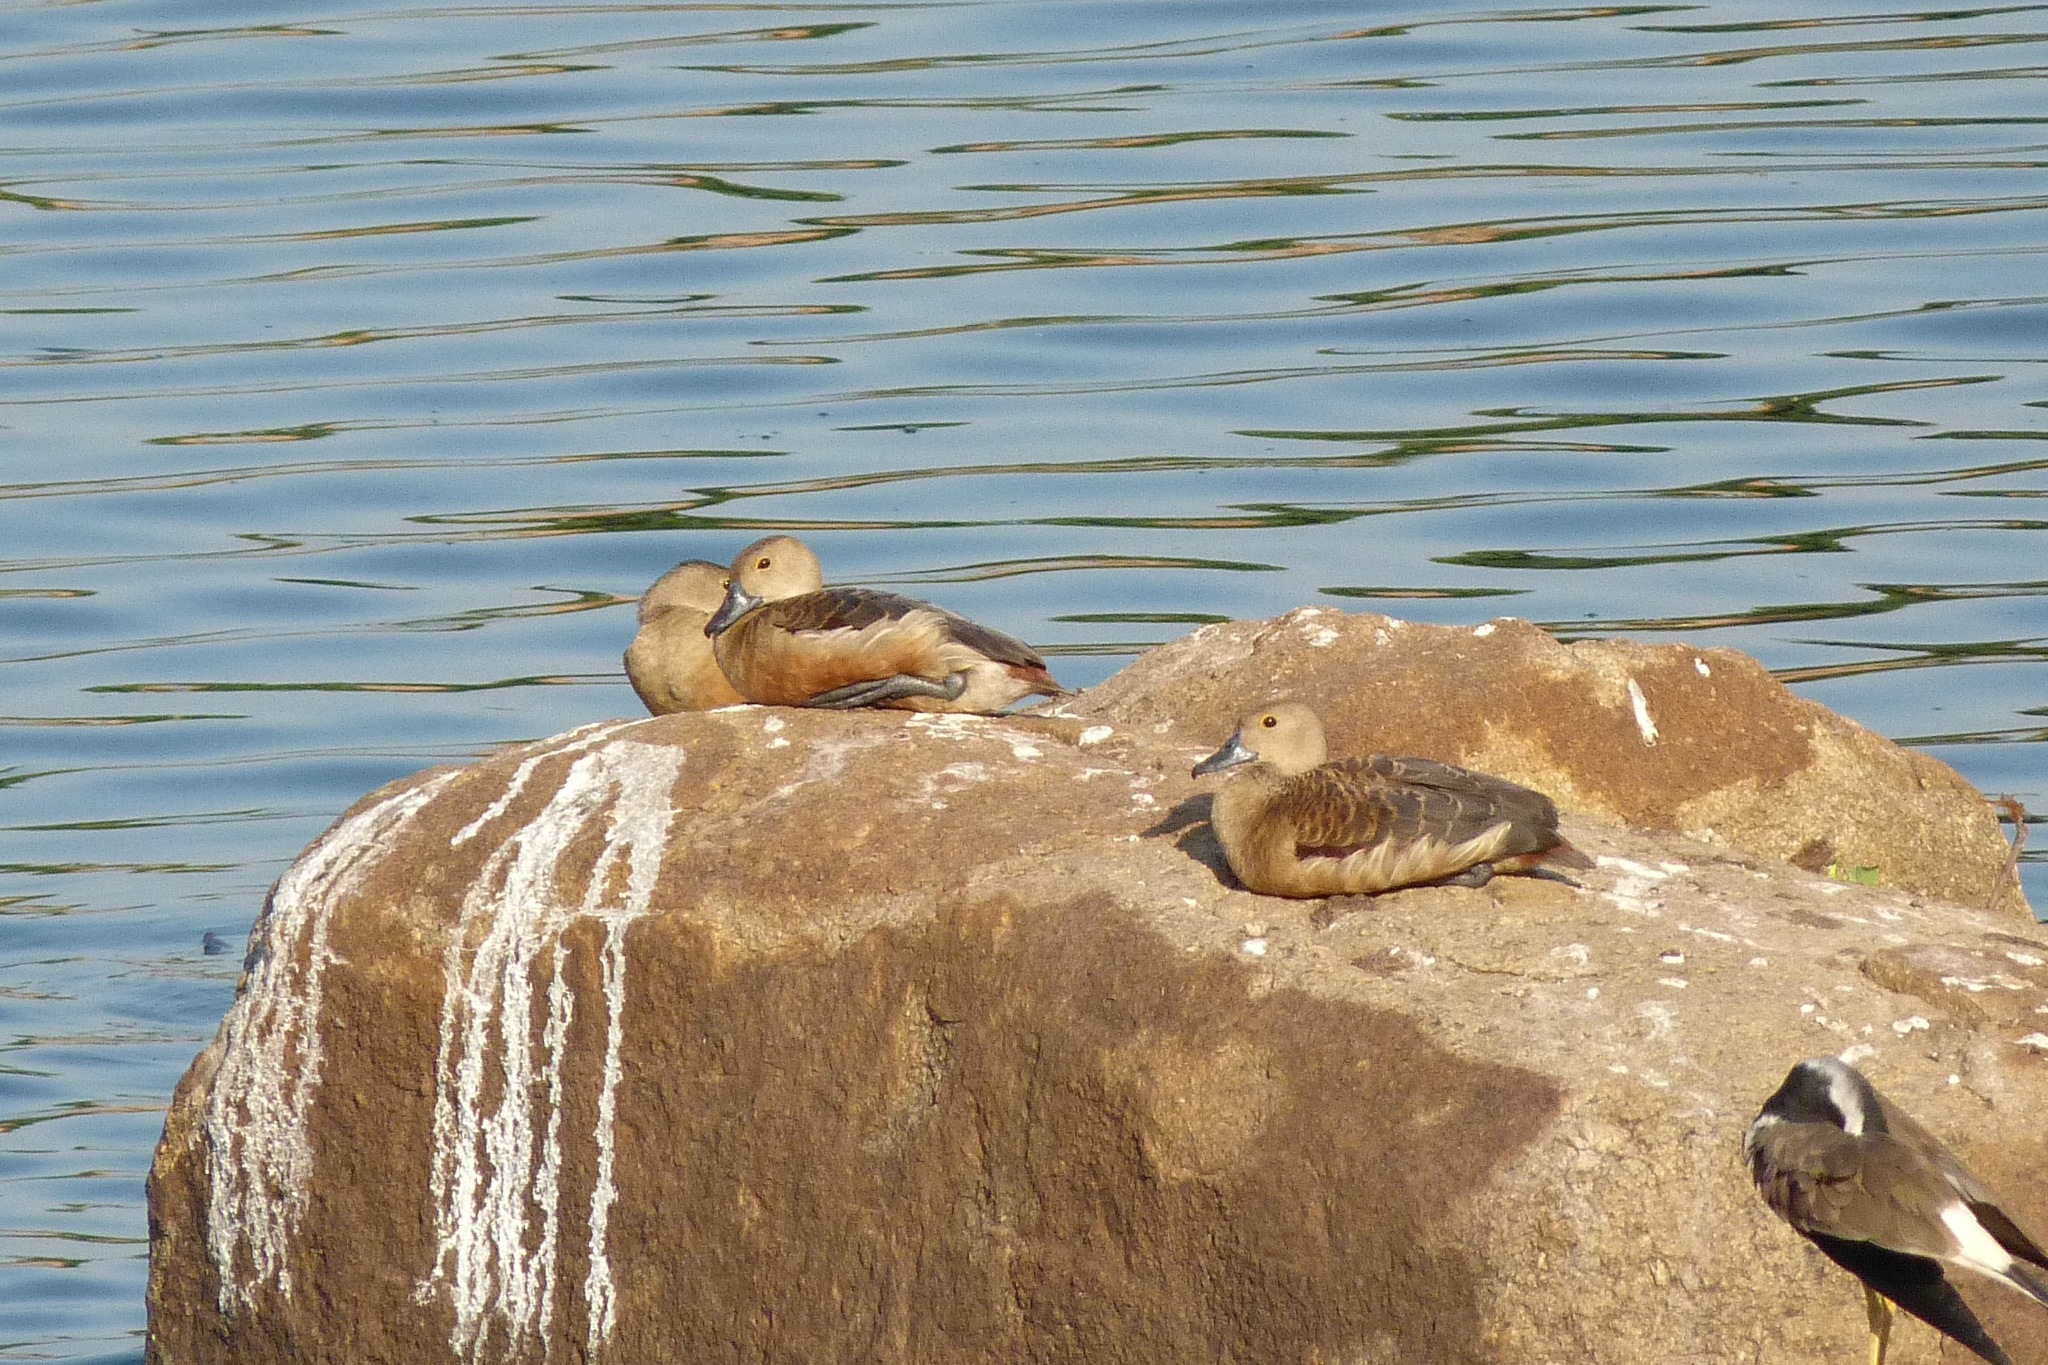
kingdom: Animalia
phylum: Chordata
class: Aves
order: Anseriformes
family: Anatidae
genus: Dendrocygna
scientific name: Dendrocygna javanica
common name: Lesser whistling-duck
